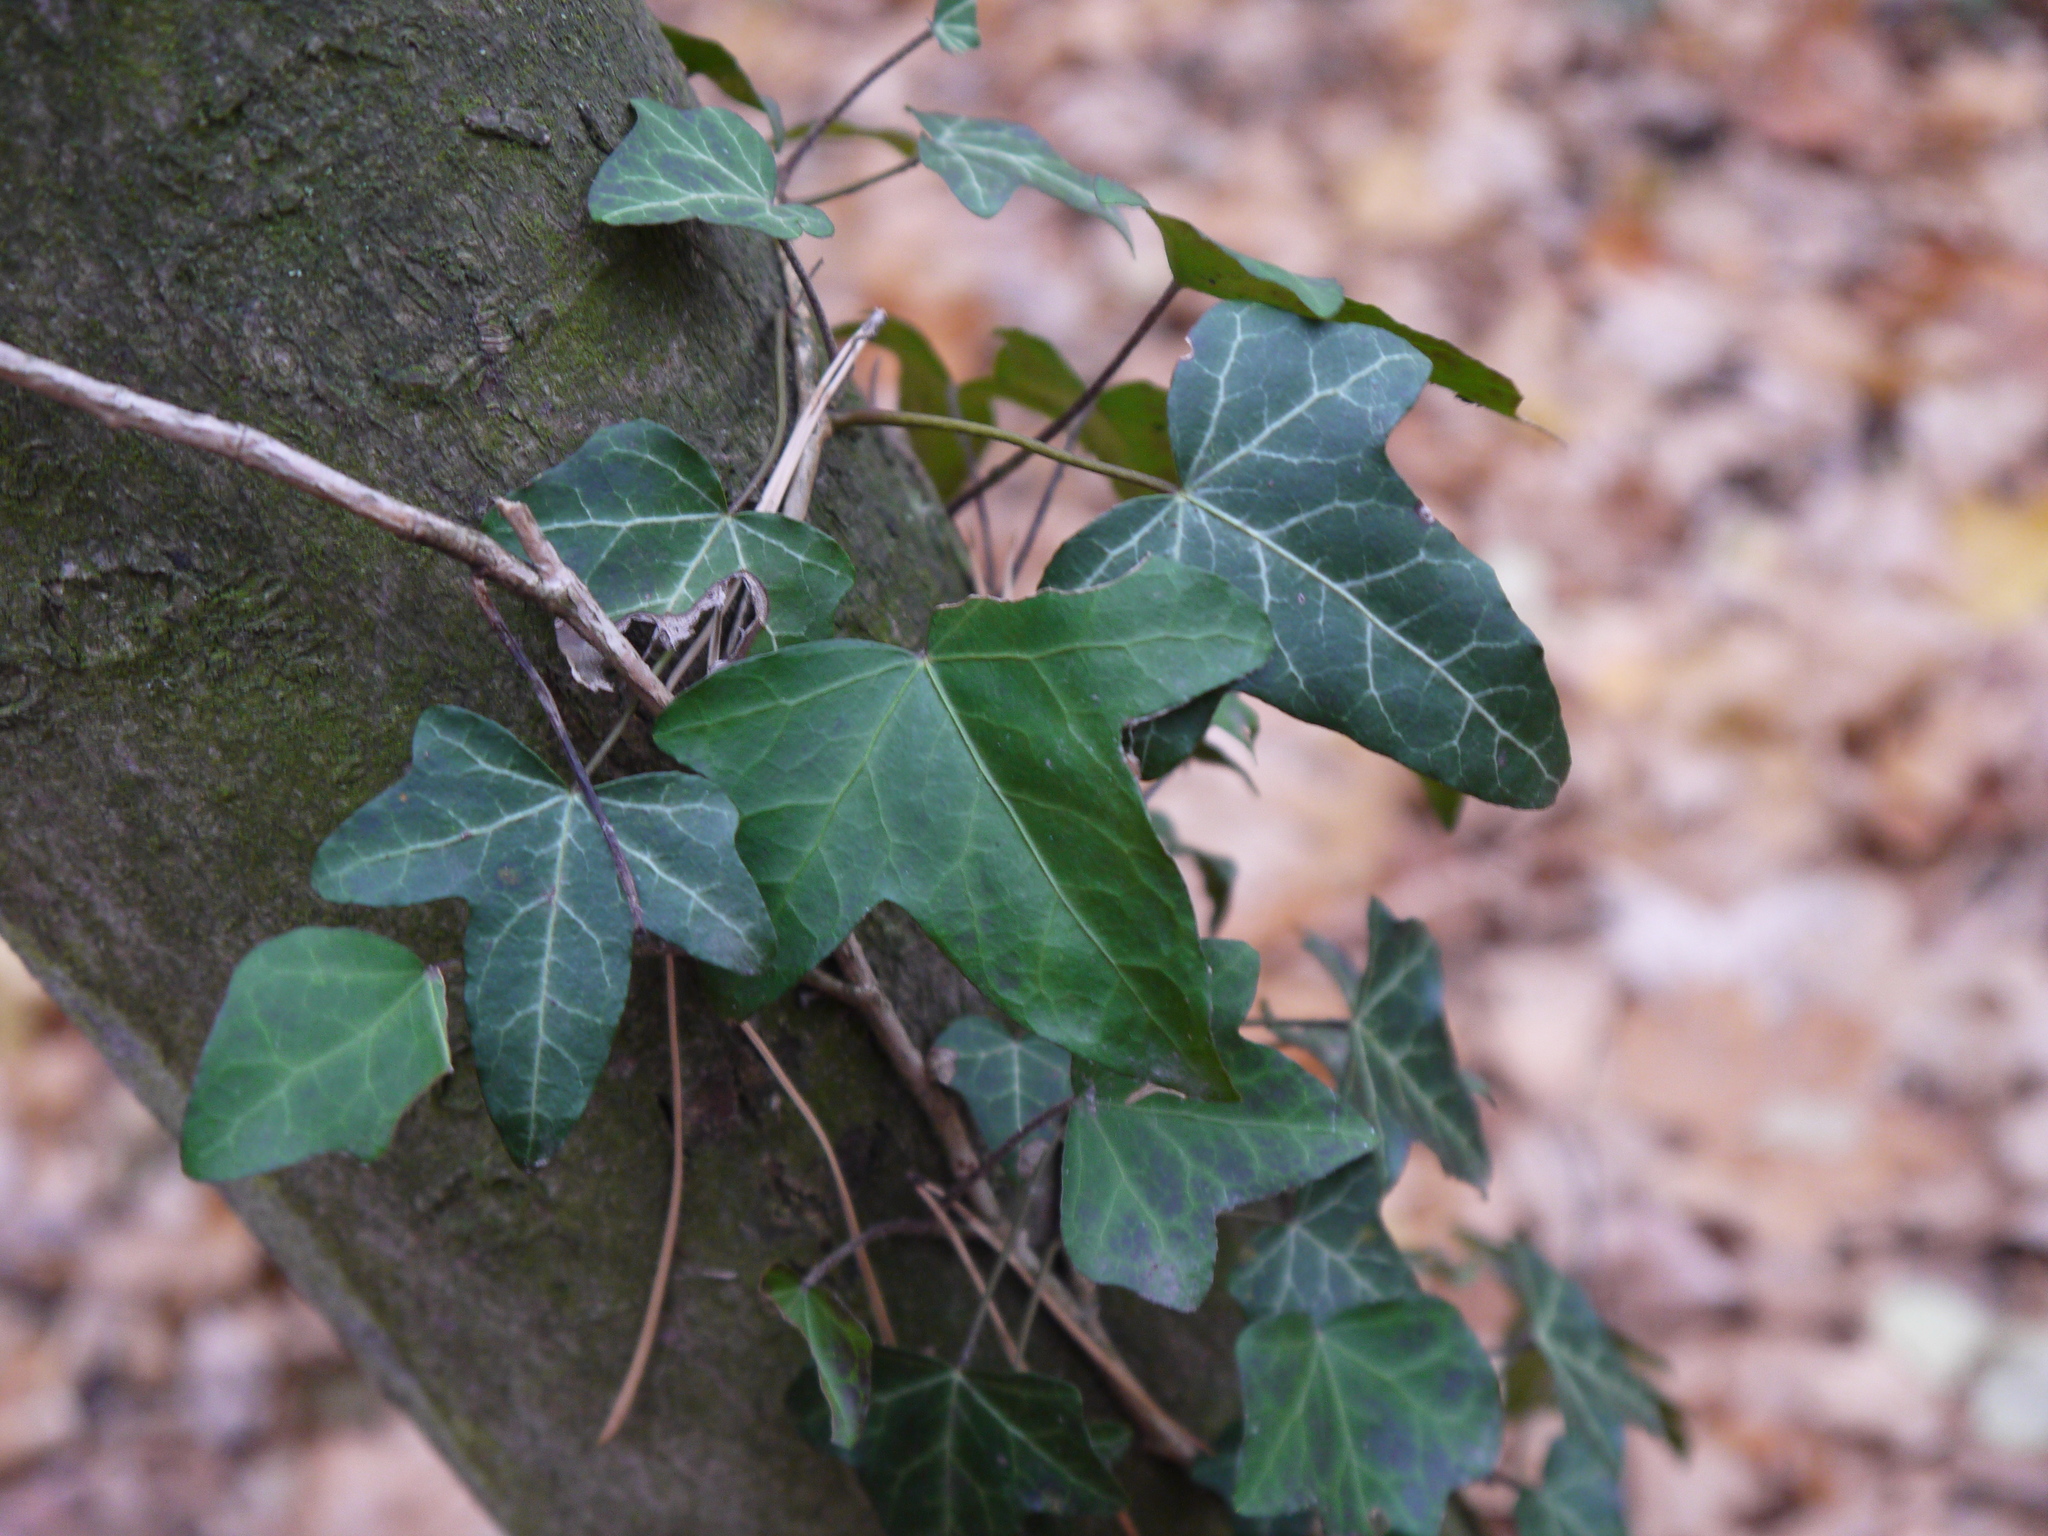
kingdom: Plantae
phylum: Tracheophyta
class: Magnoliopsida
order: Apiales
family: Araliaceae
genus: Hedera
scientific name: Hedera helix
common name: Ivy
